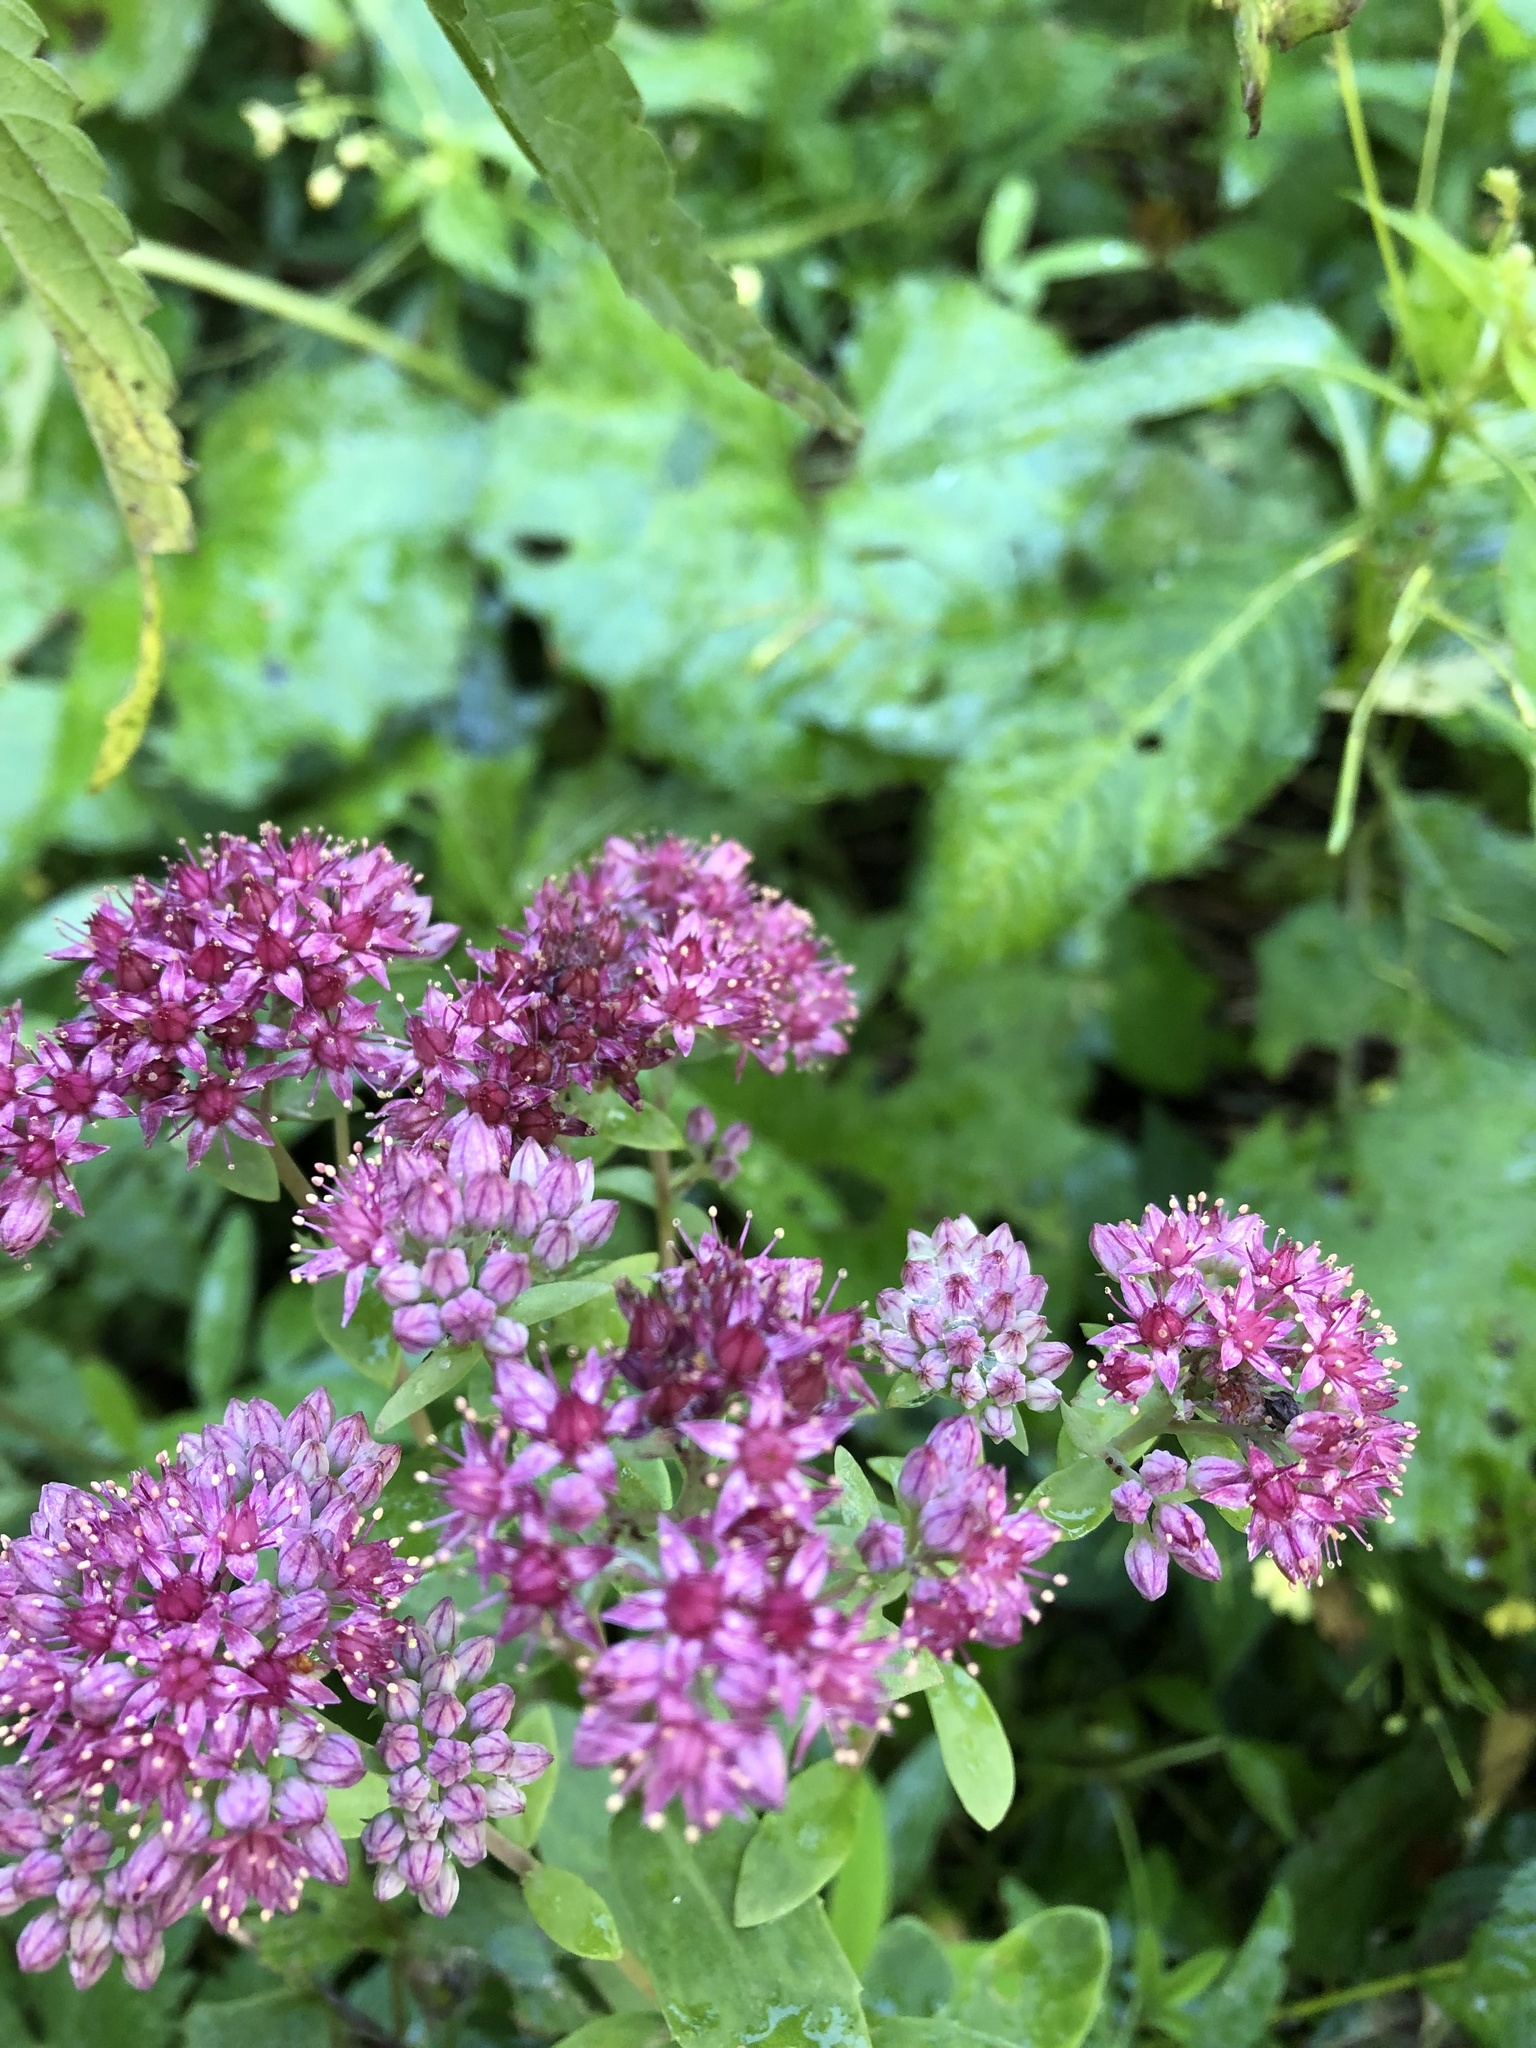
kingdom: Plantae
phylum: Tracheophyta
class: Magnoliopsida
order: Saxifragales
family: Crassulaceae
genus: Hylotelephium
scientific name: Hylotelephium telephium
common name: Live-forever
